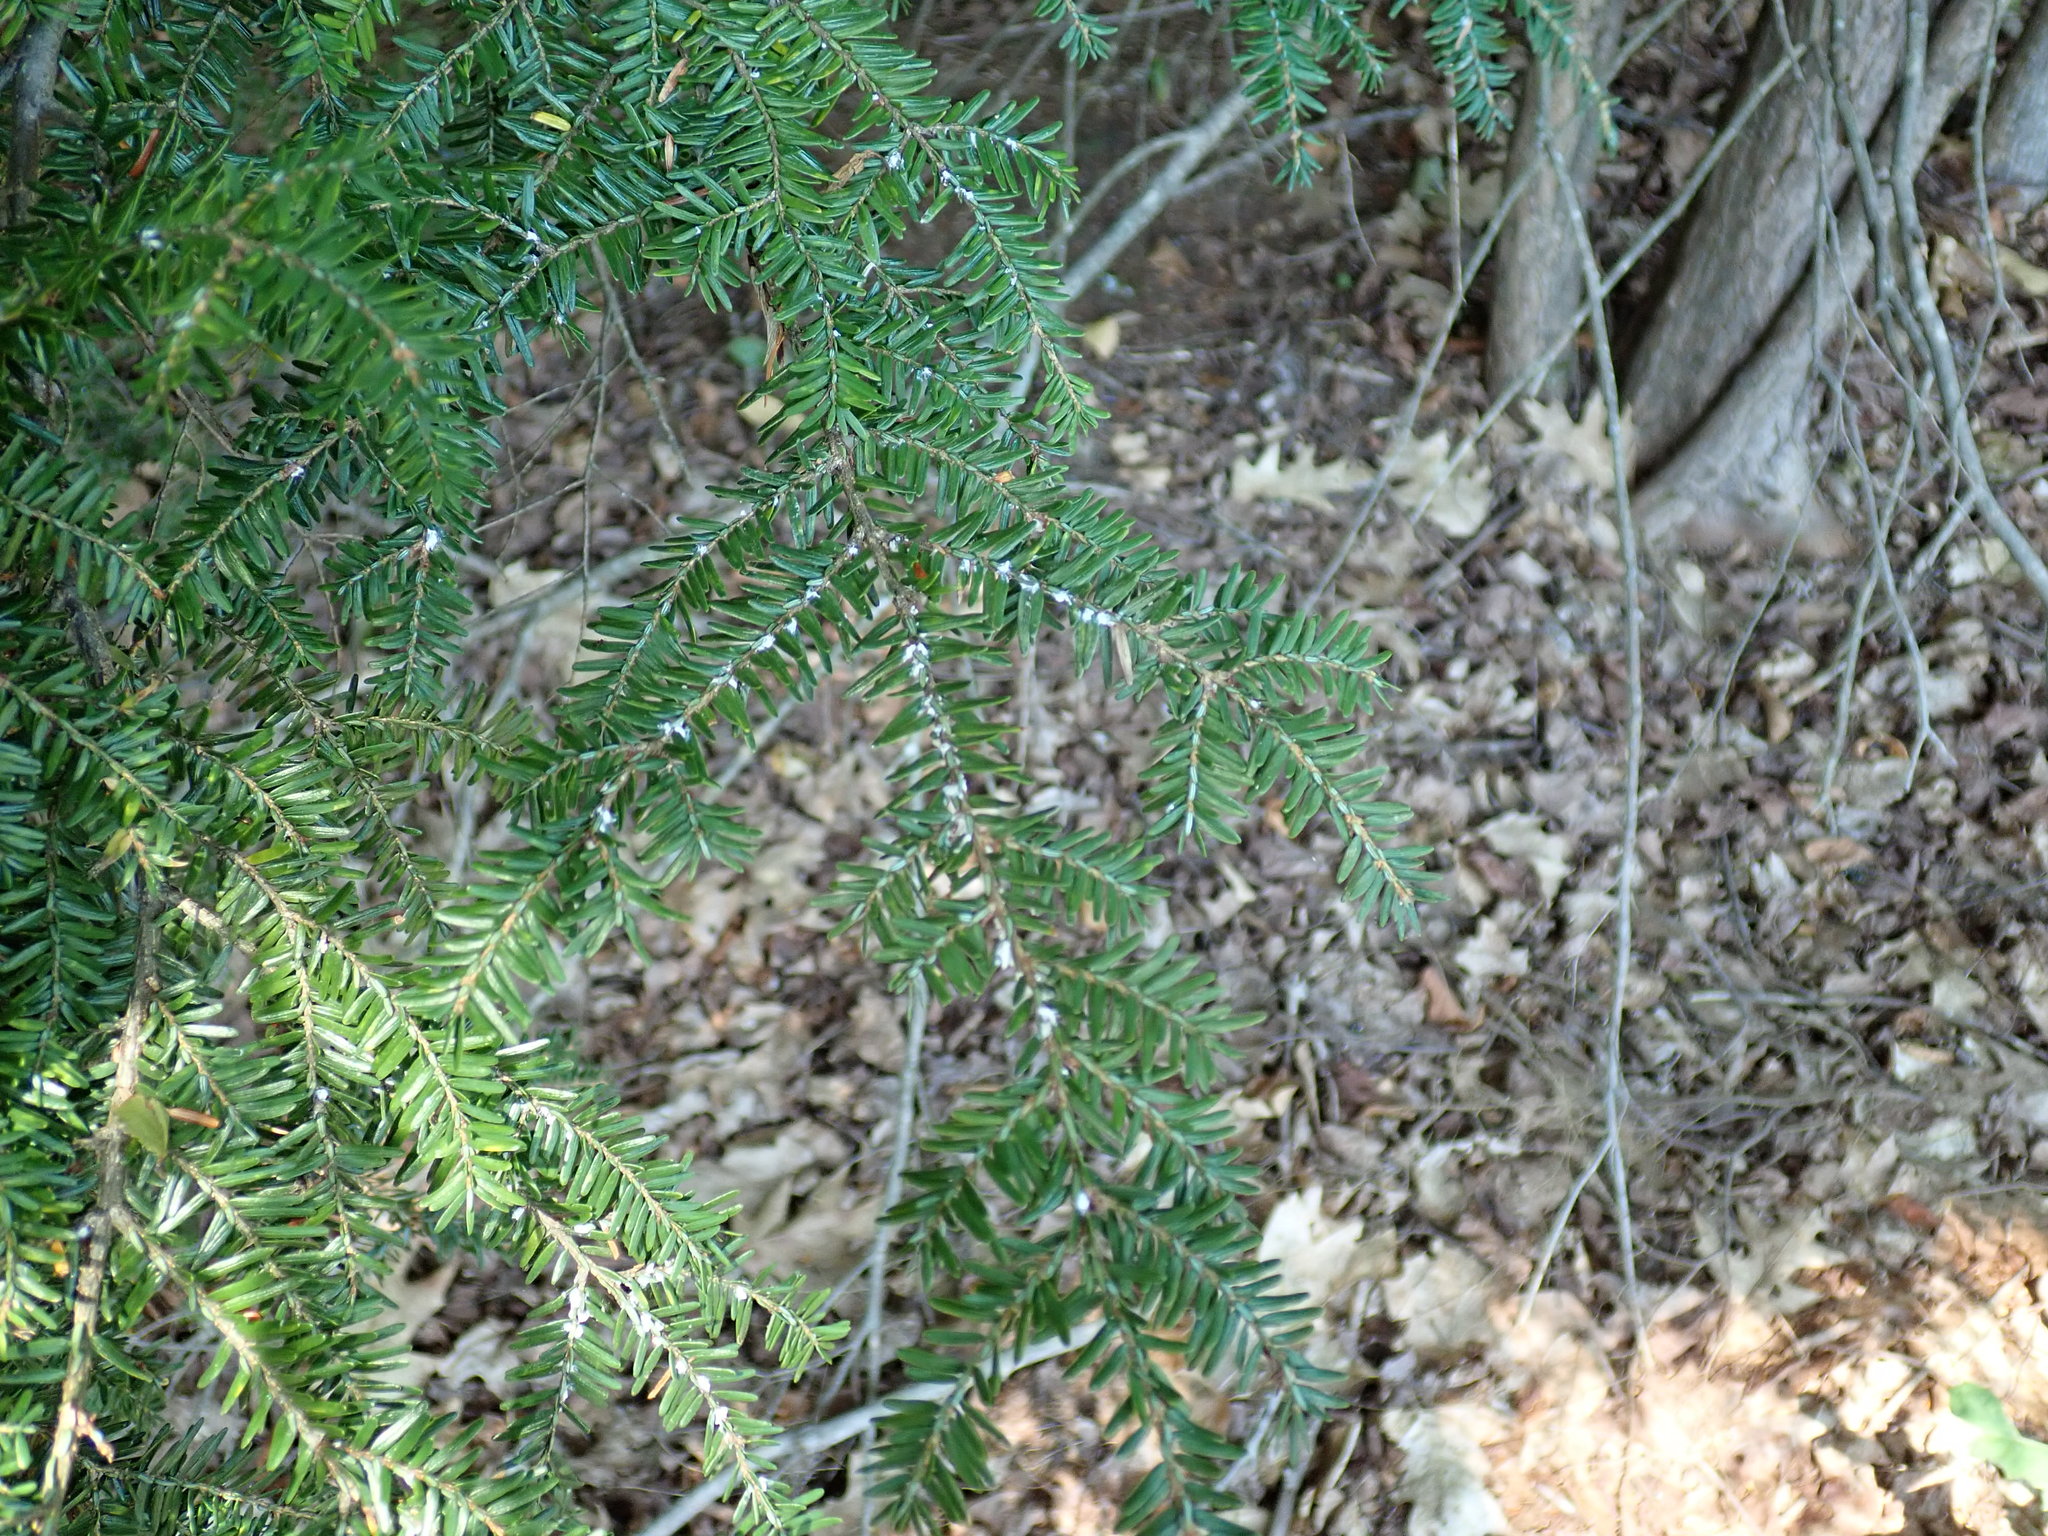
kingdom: Animalia
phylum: Arthropoda
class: Insecta
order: Hemiptera
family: Adelgidae
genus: Adelges
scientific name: Adelges tsugae
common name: Hemlock woolly adelgid
